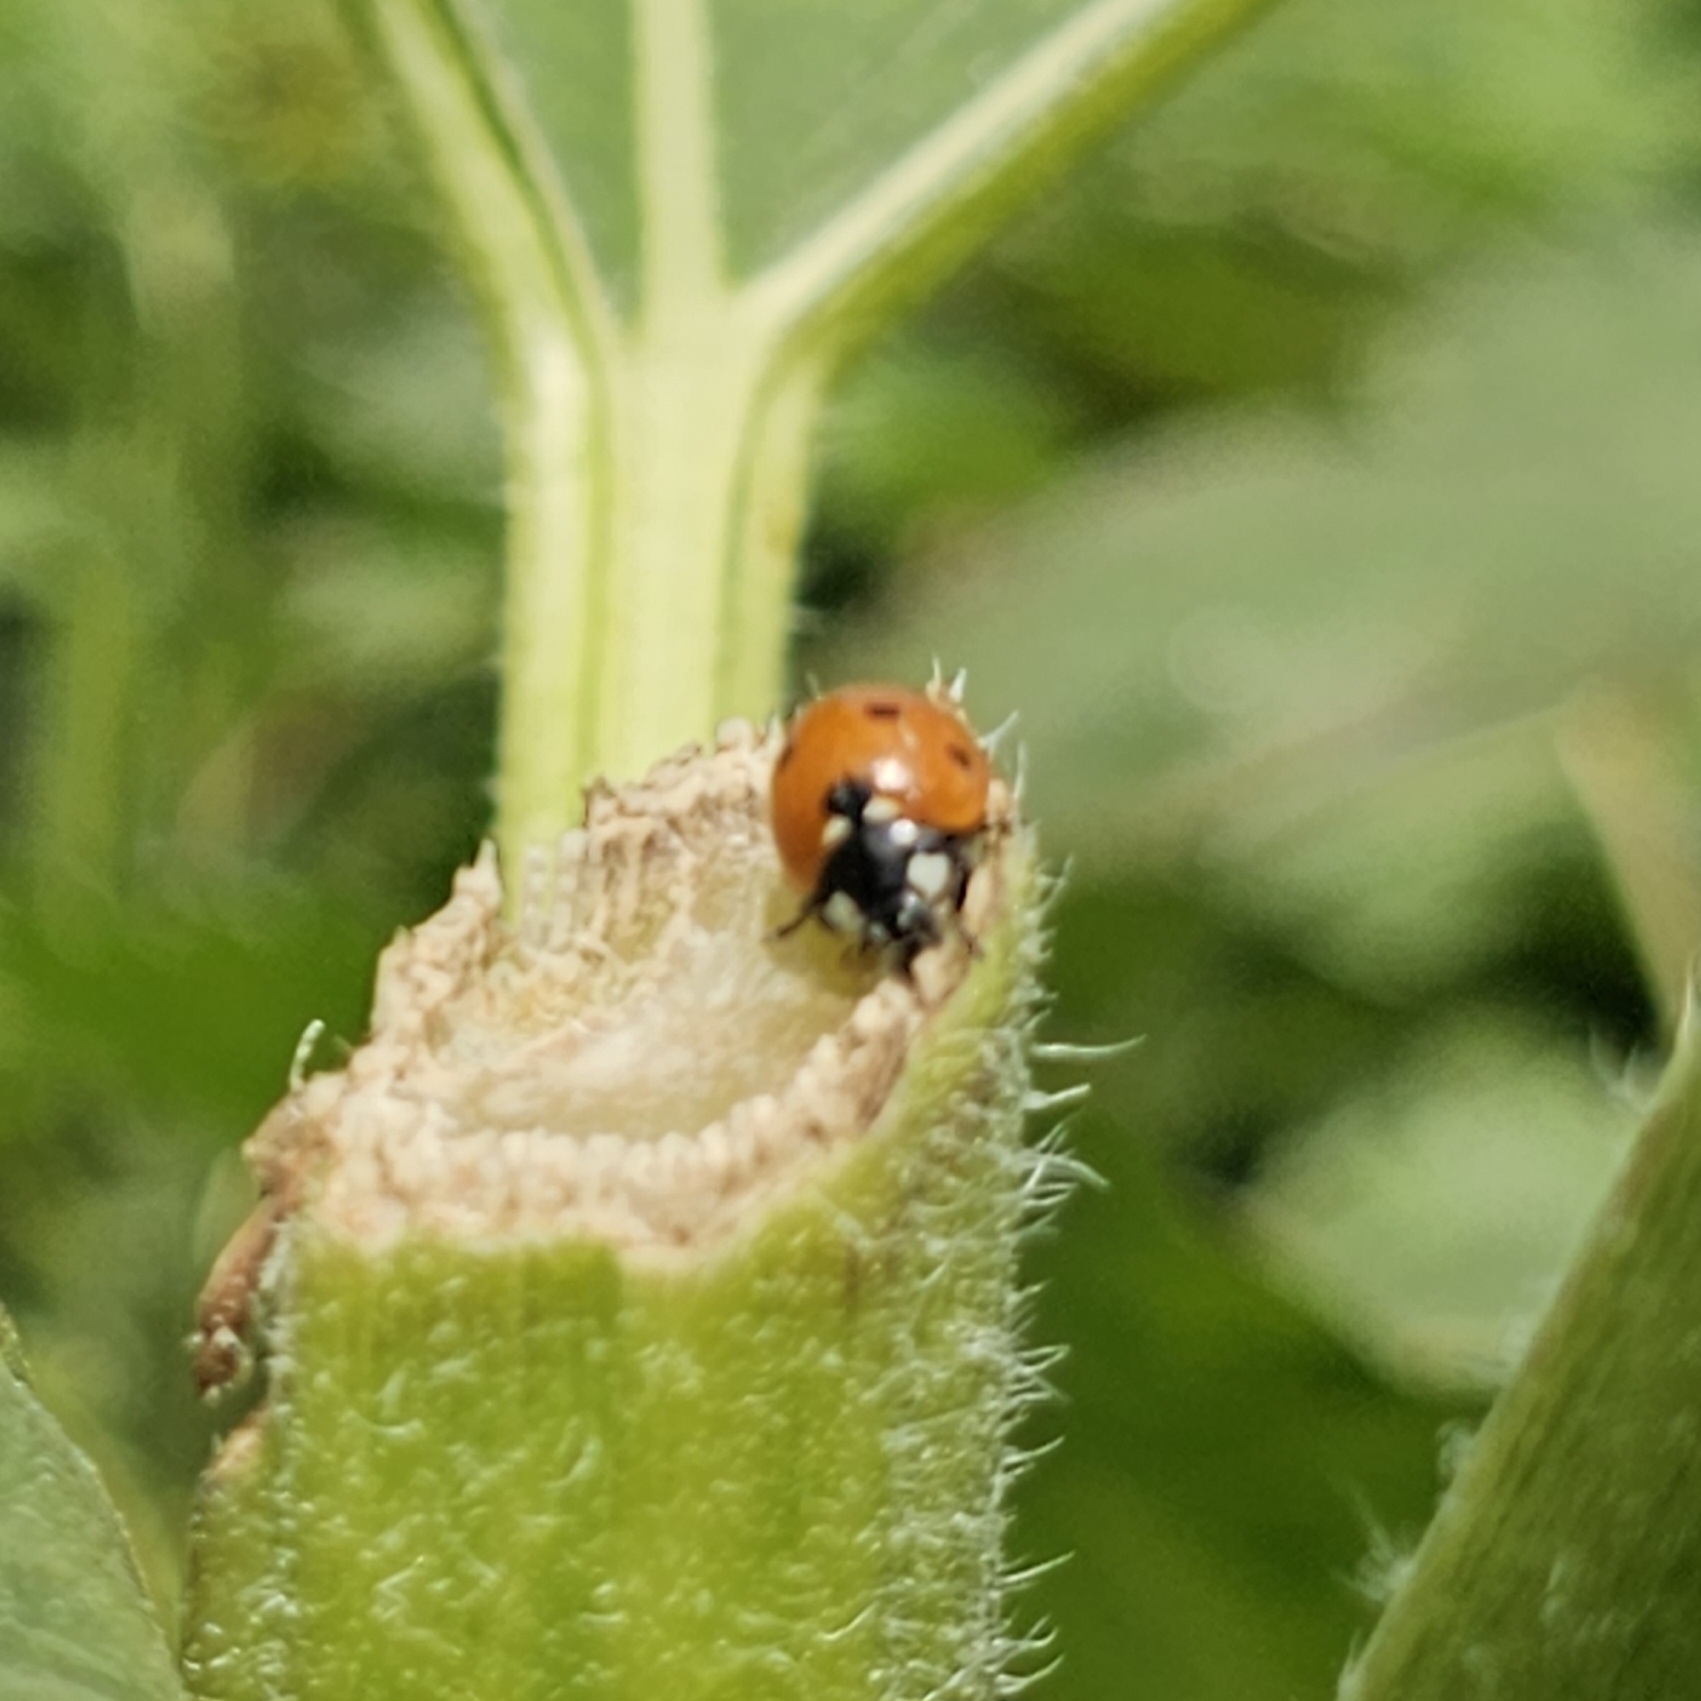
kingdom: Animalia
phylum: Arthropoda
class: Insecta
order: Coleoptera
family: Coccinellidae
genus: Coccinella
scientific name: Coccinella septempunctata
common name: Sevenspotted lady beetle
